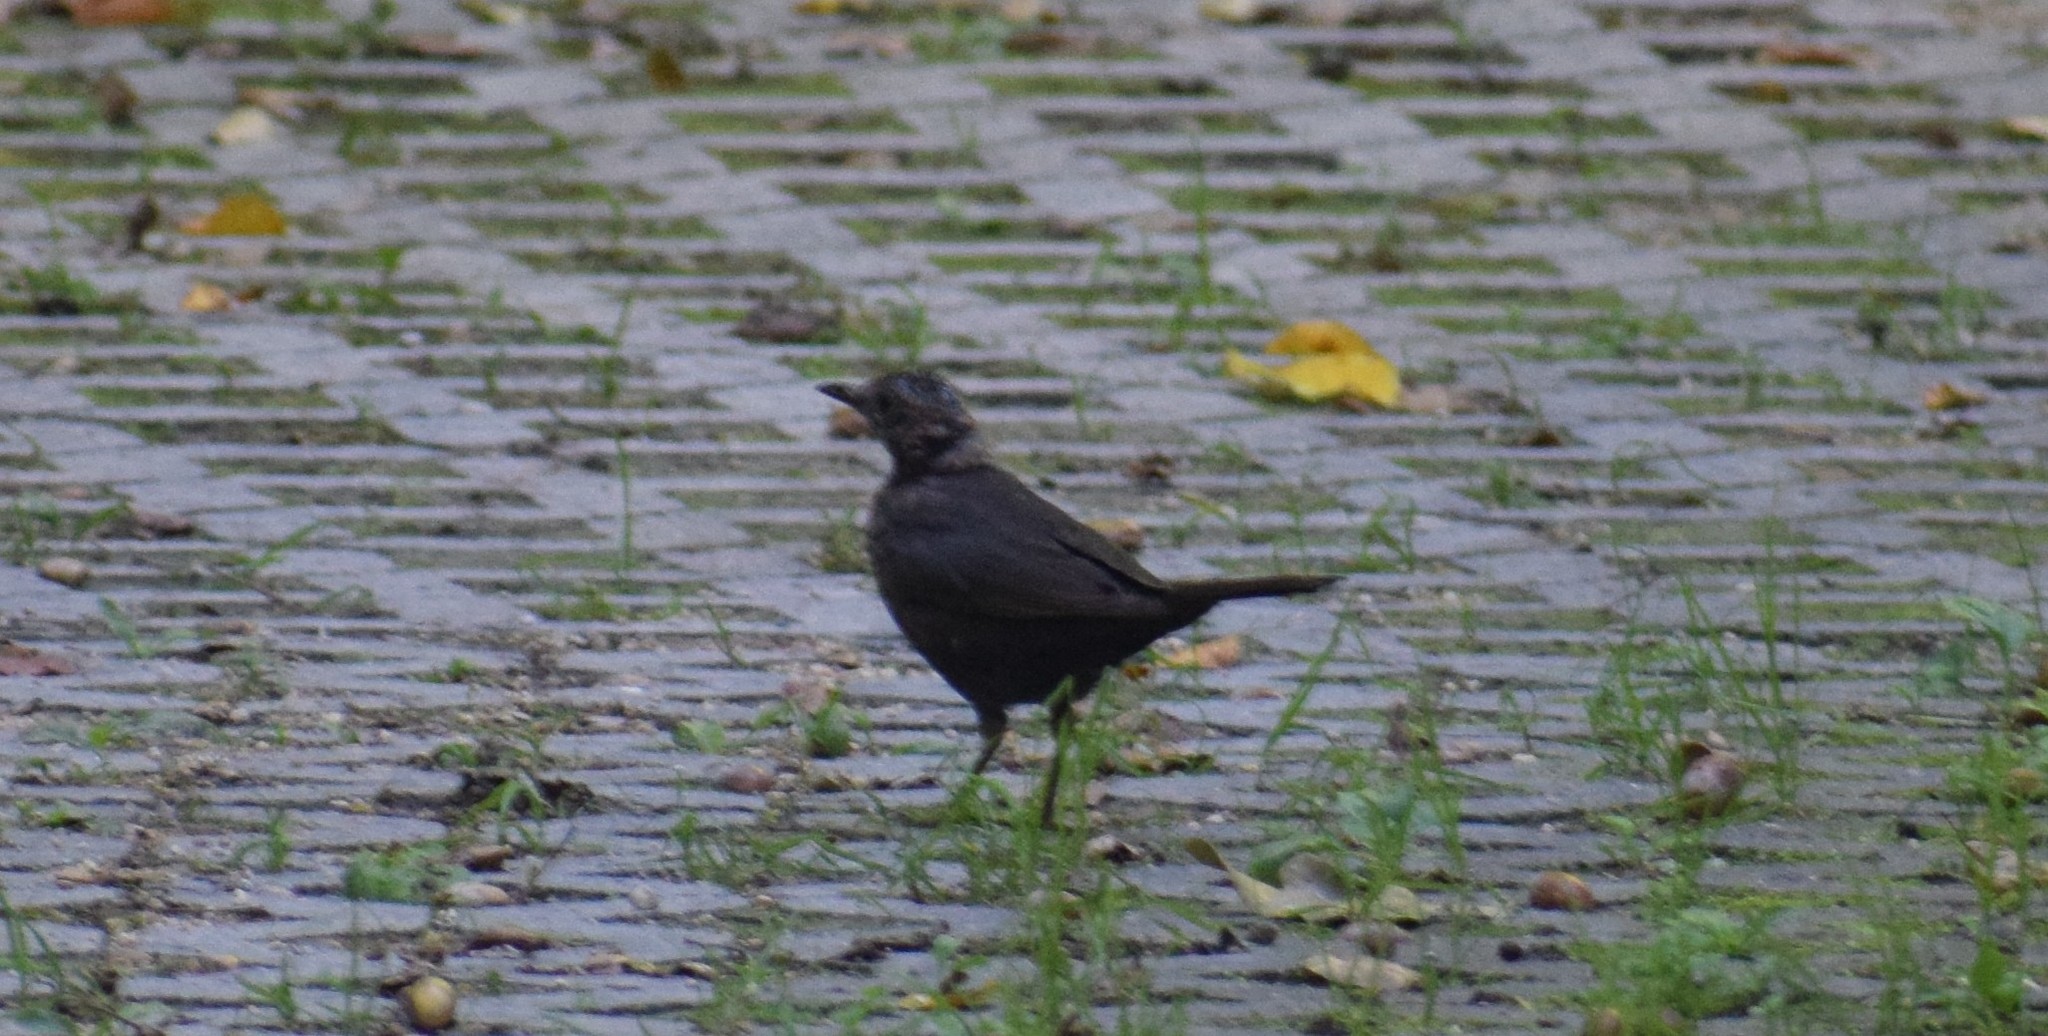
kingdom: Animalia
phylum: Chordata
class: Aves
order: Passeriformes
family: Turdidae
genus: Turdus
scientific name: Turdus merula
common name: Common blackbird
